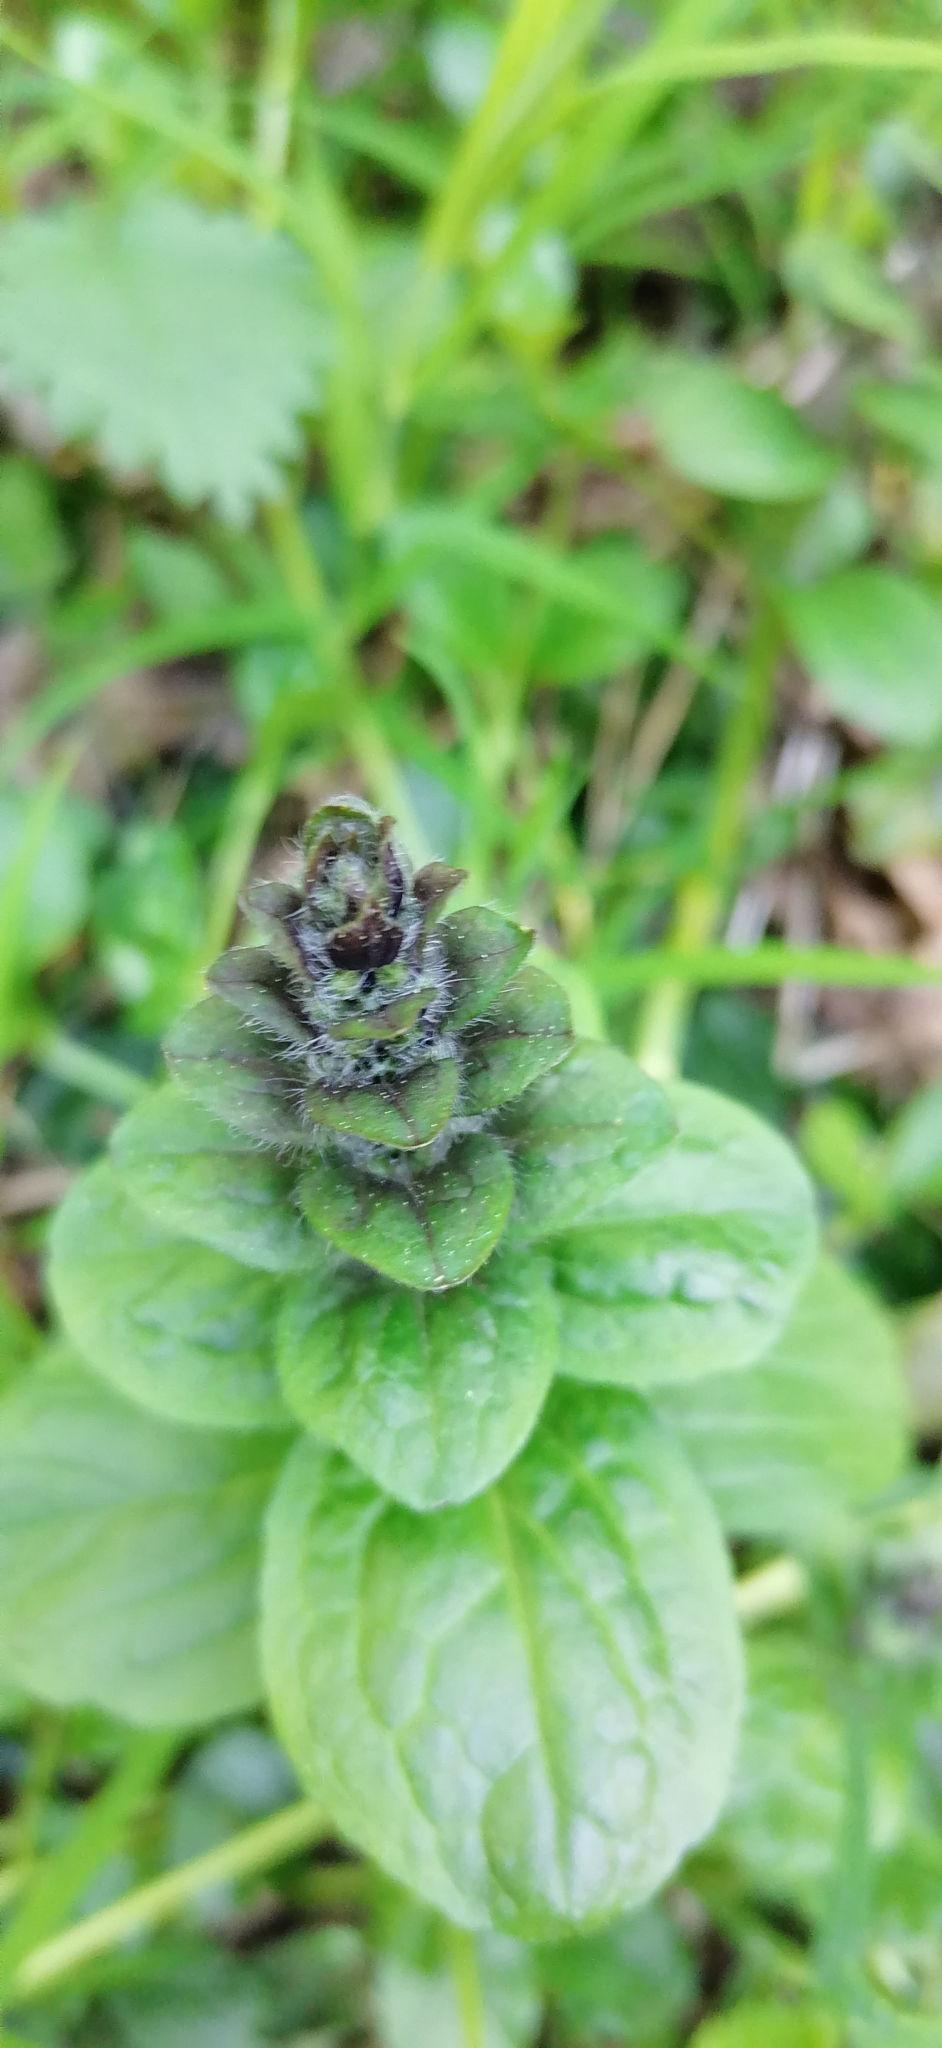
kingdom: Plantae
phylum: Tracheophyta
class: Magnoliopsida
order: Lamiales
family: Lamiaceae
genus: Ajuga
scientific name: Ajuga reptans
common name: Bugle
